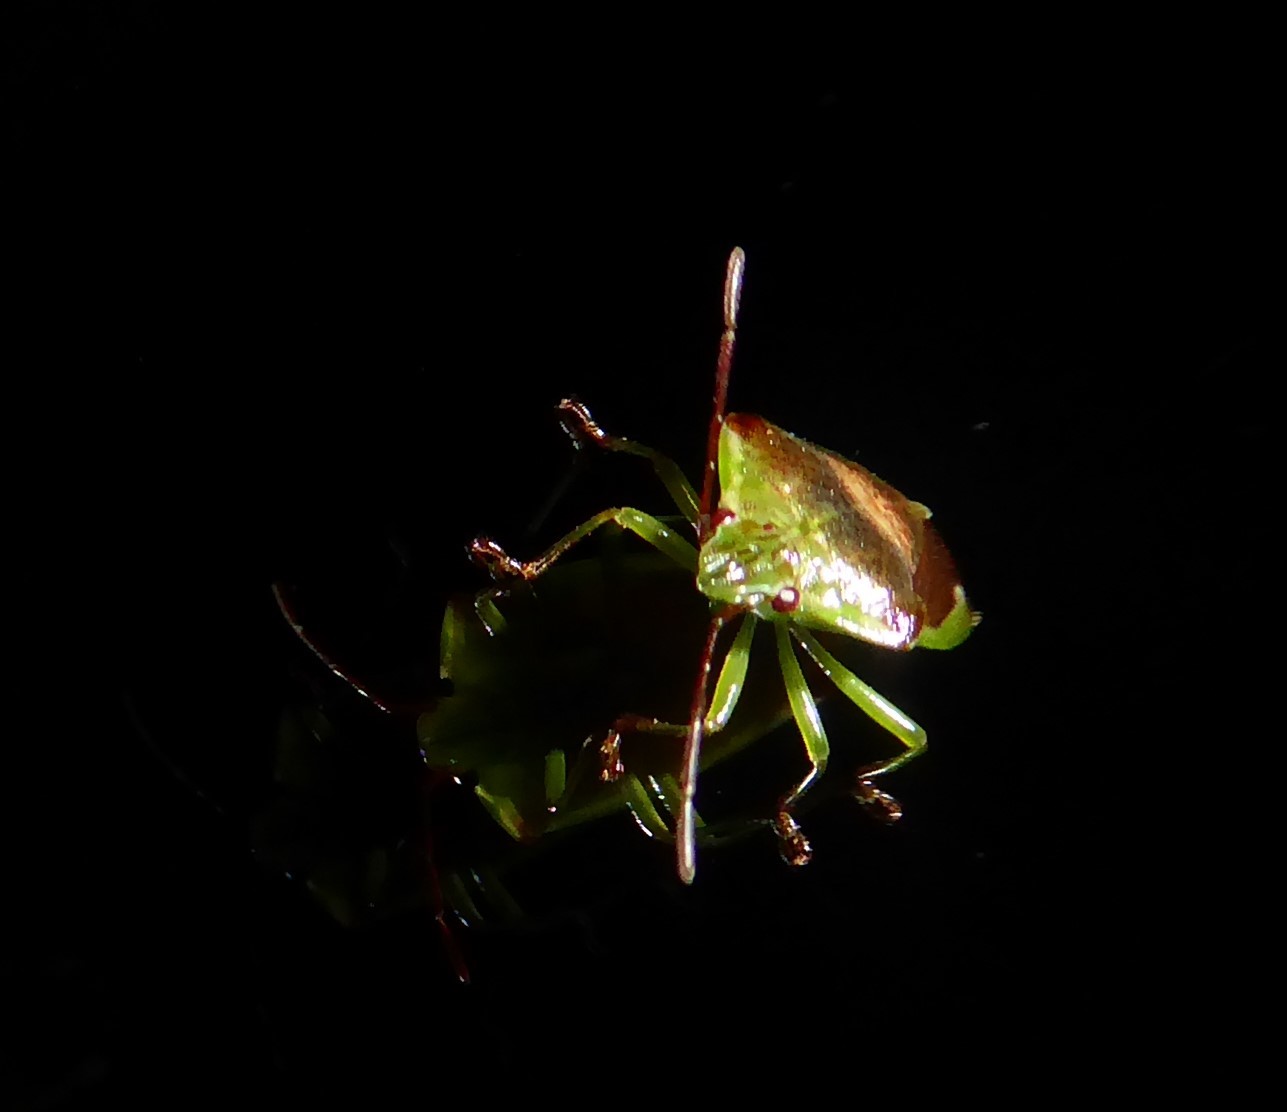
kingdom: Animalia
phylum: Arthropoda
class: Insecta
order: Hemiptera
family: Acanthosomatidae
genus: Oncacontias
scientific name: Oncacontias vittatus
